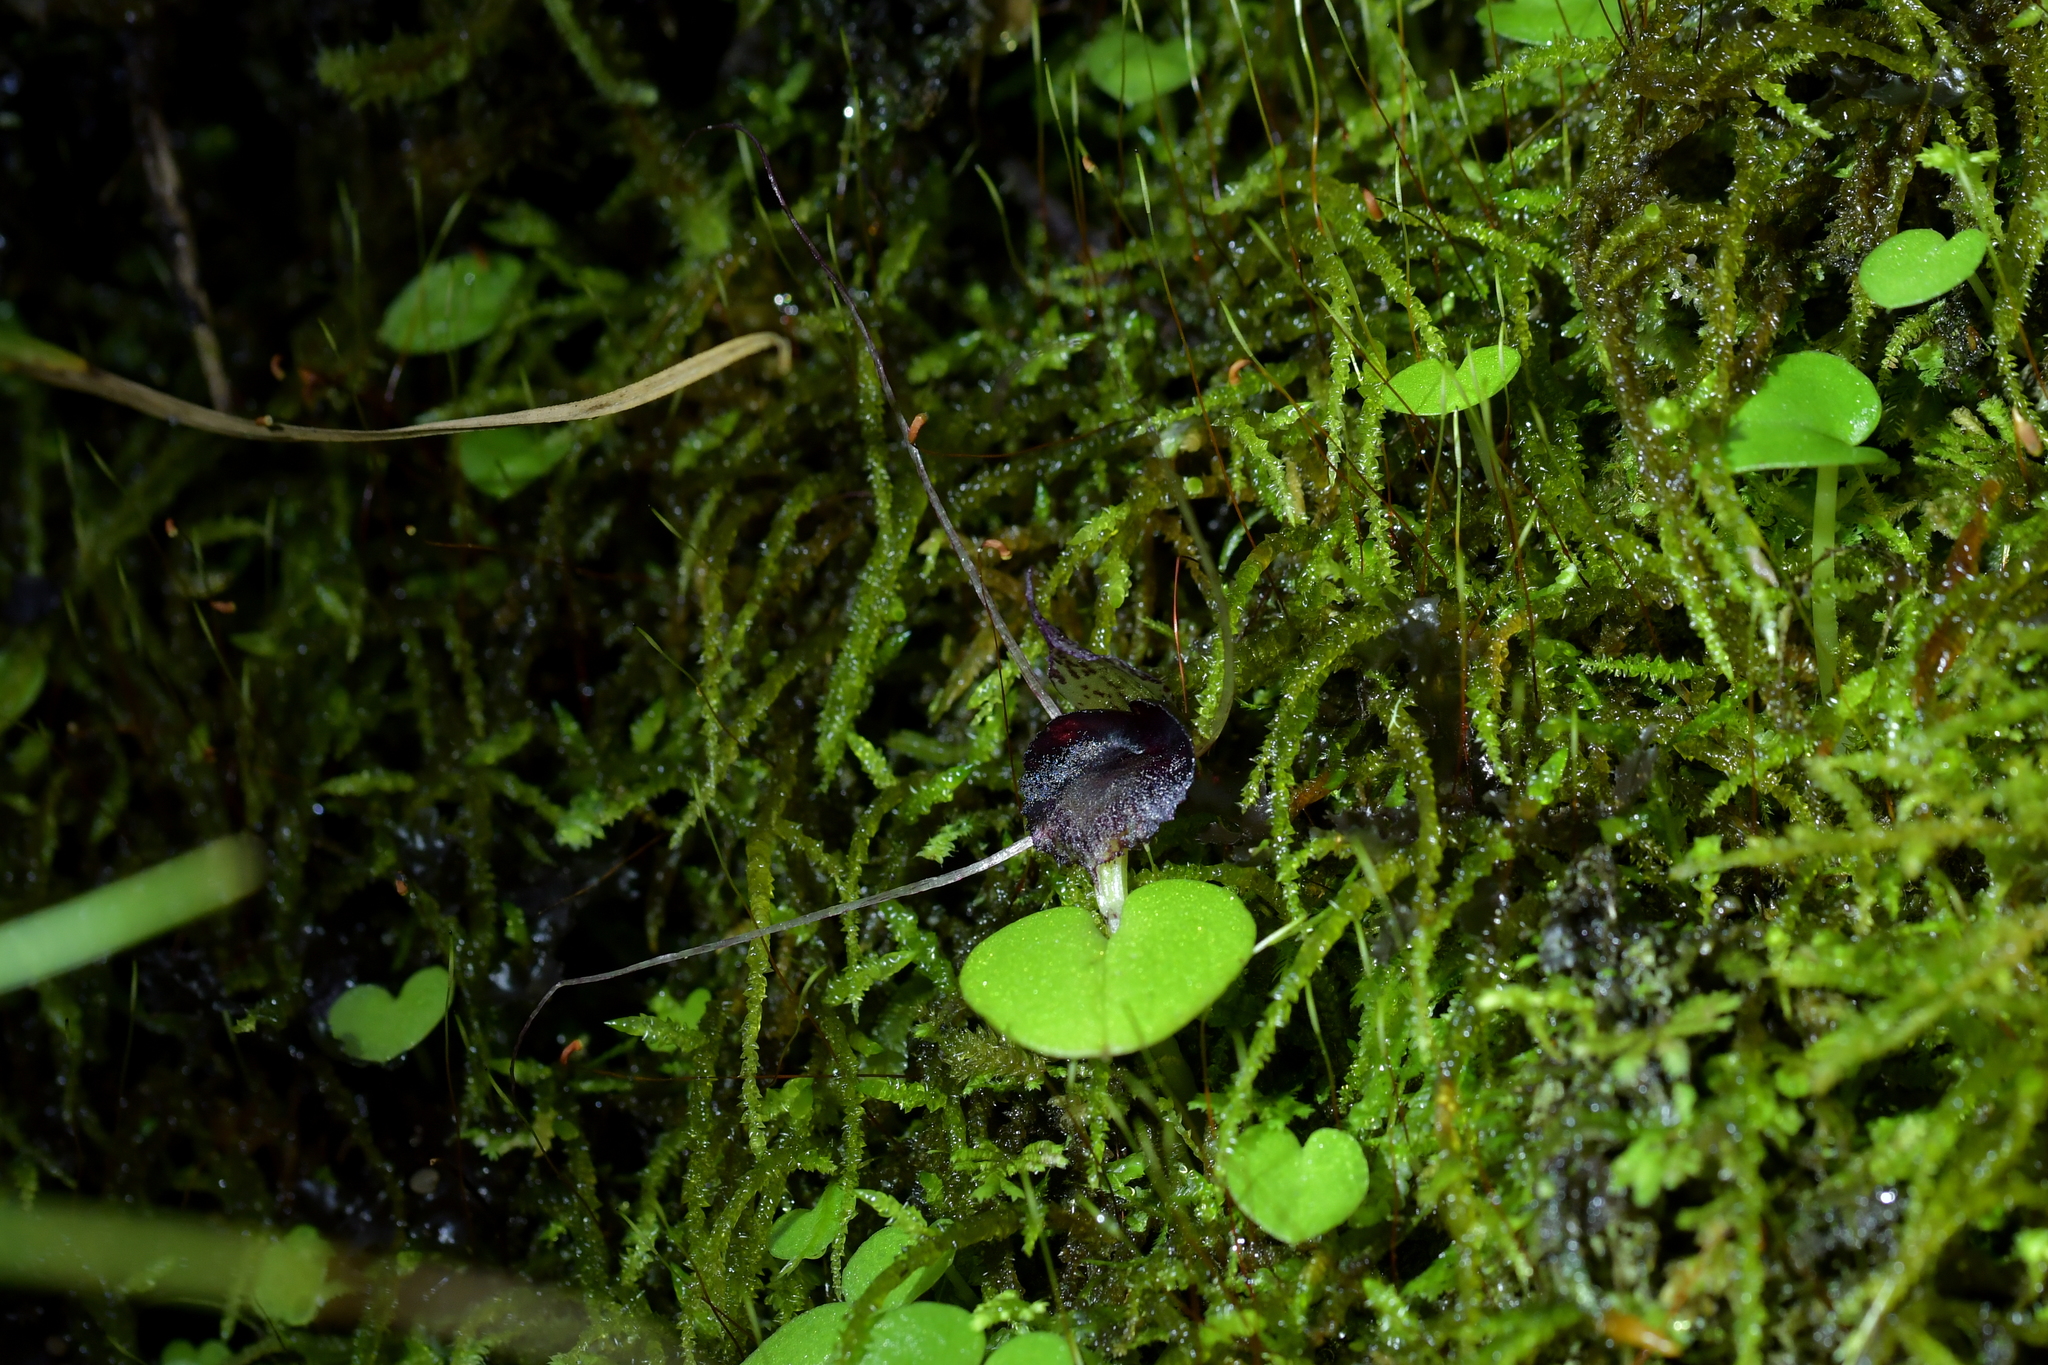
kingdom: Plantae
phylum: Tracheophyta
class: Liliopsida
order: Asparagales
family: Orchidaceae
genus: Corybas
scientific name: Corybas iridescens
